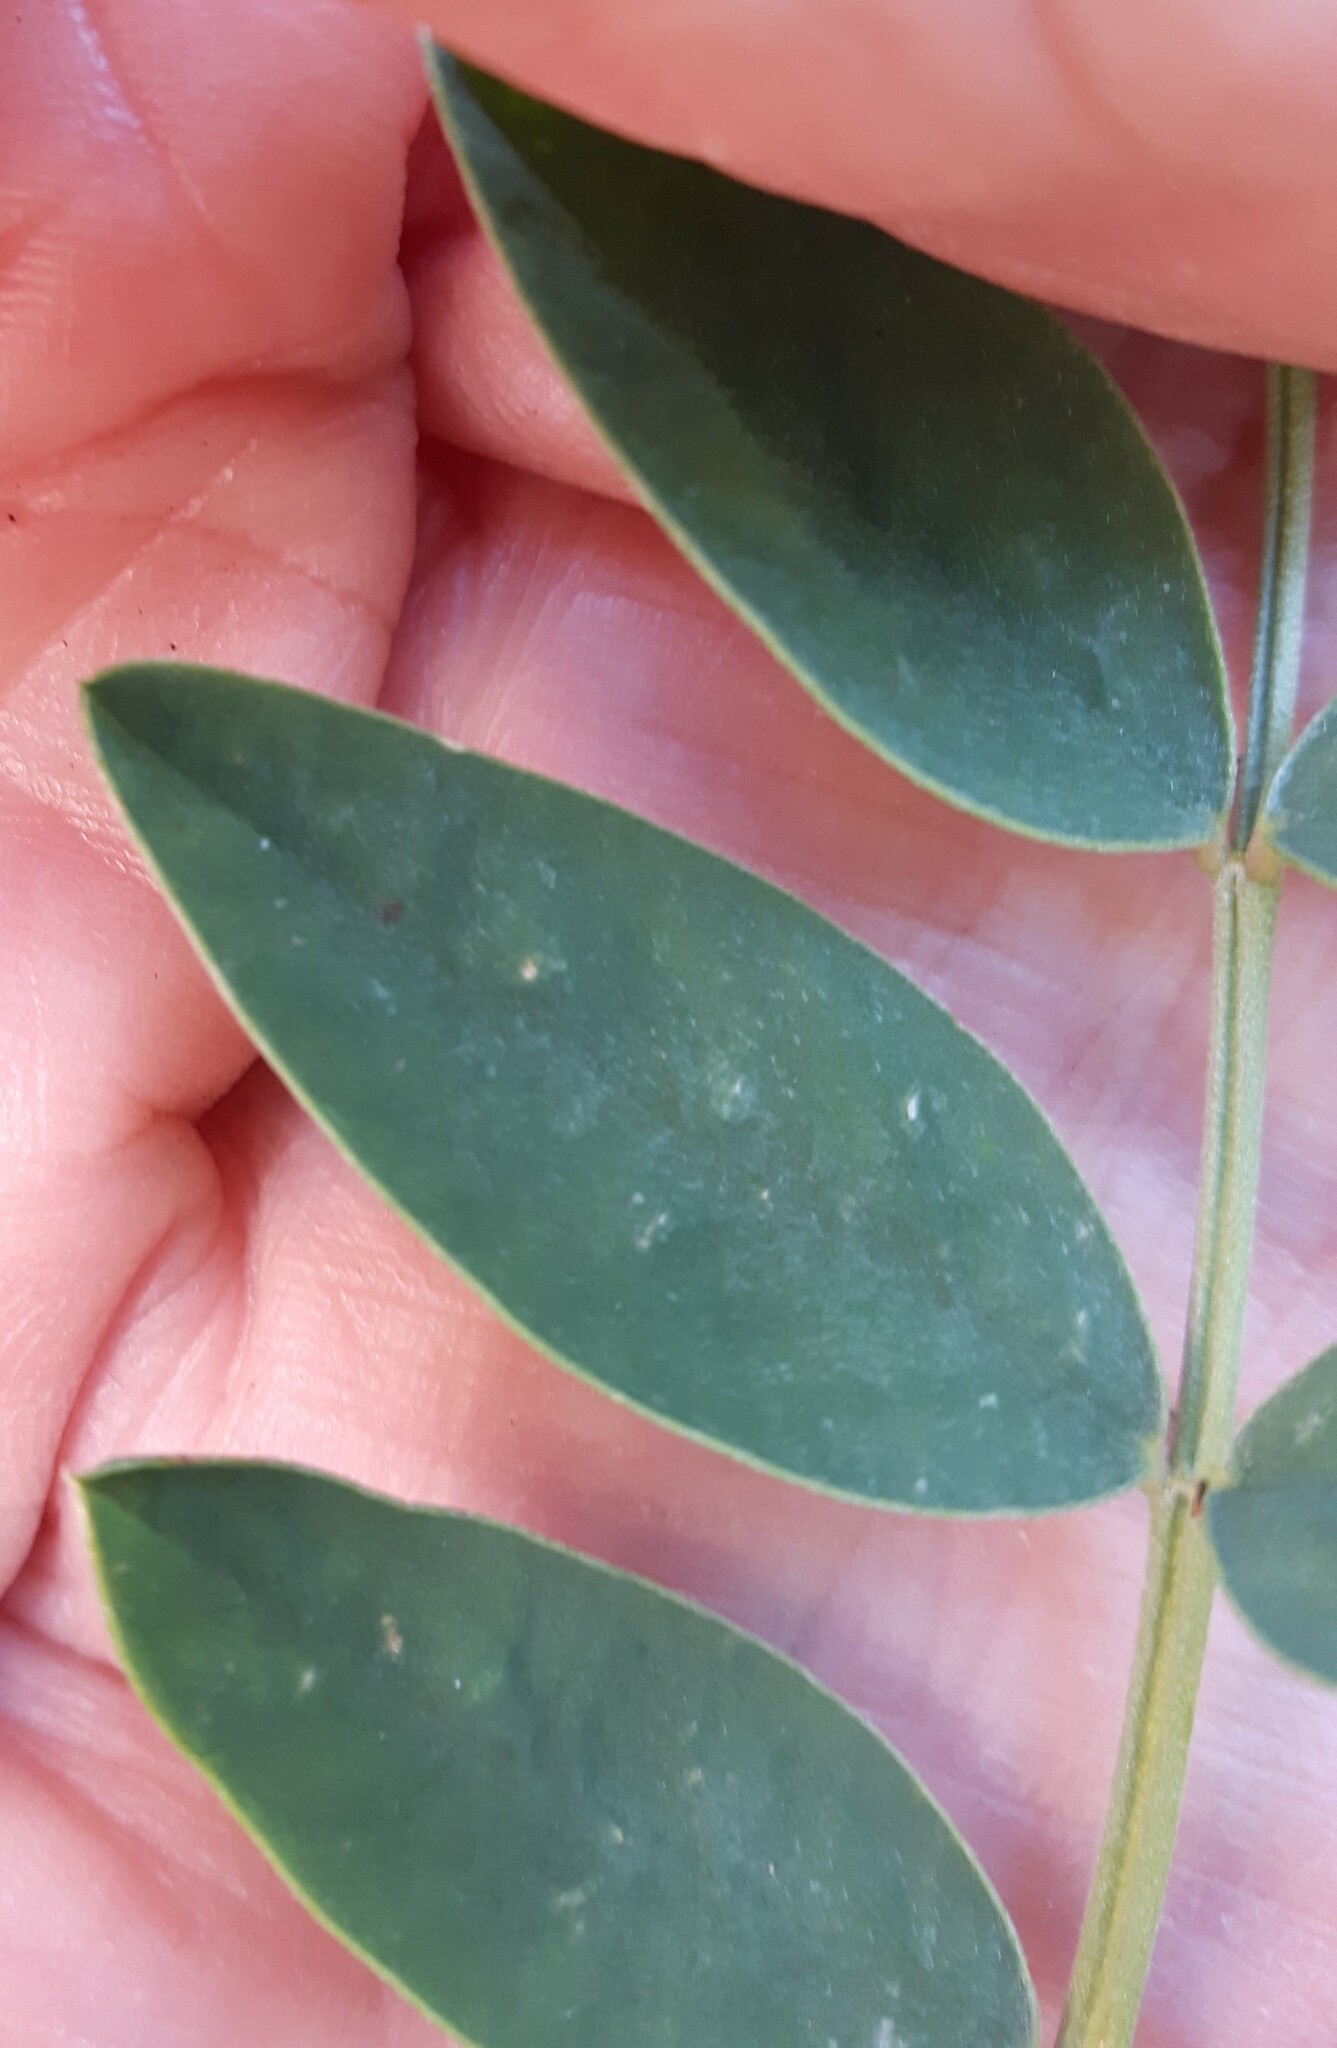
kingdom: Plantae
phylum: Tracheophyta
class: Magnoliopsida
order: Fabales
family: Fabaceae
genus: Hedysarum
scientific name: Hedysarum boreale
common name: Northern sweet-vetch
